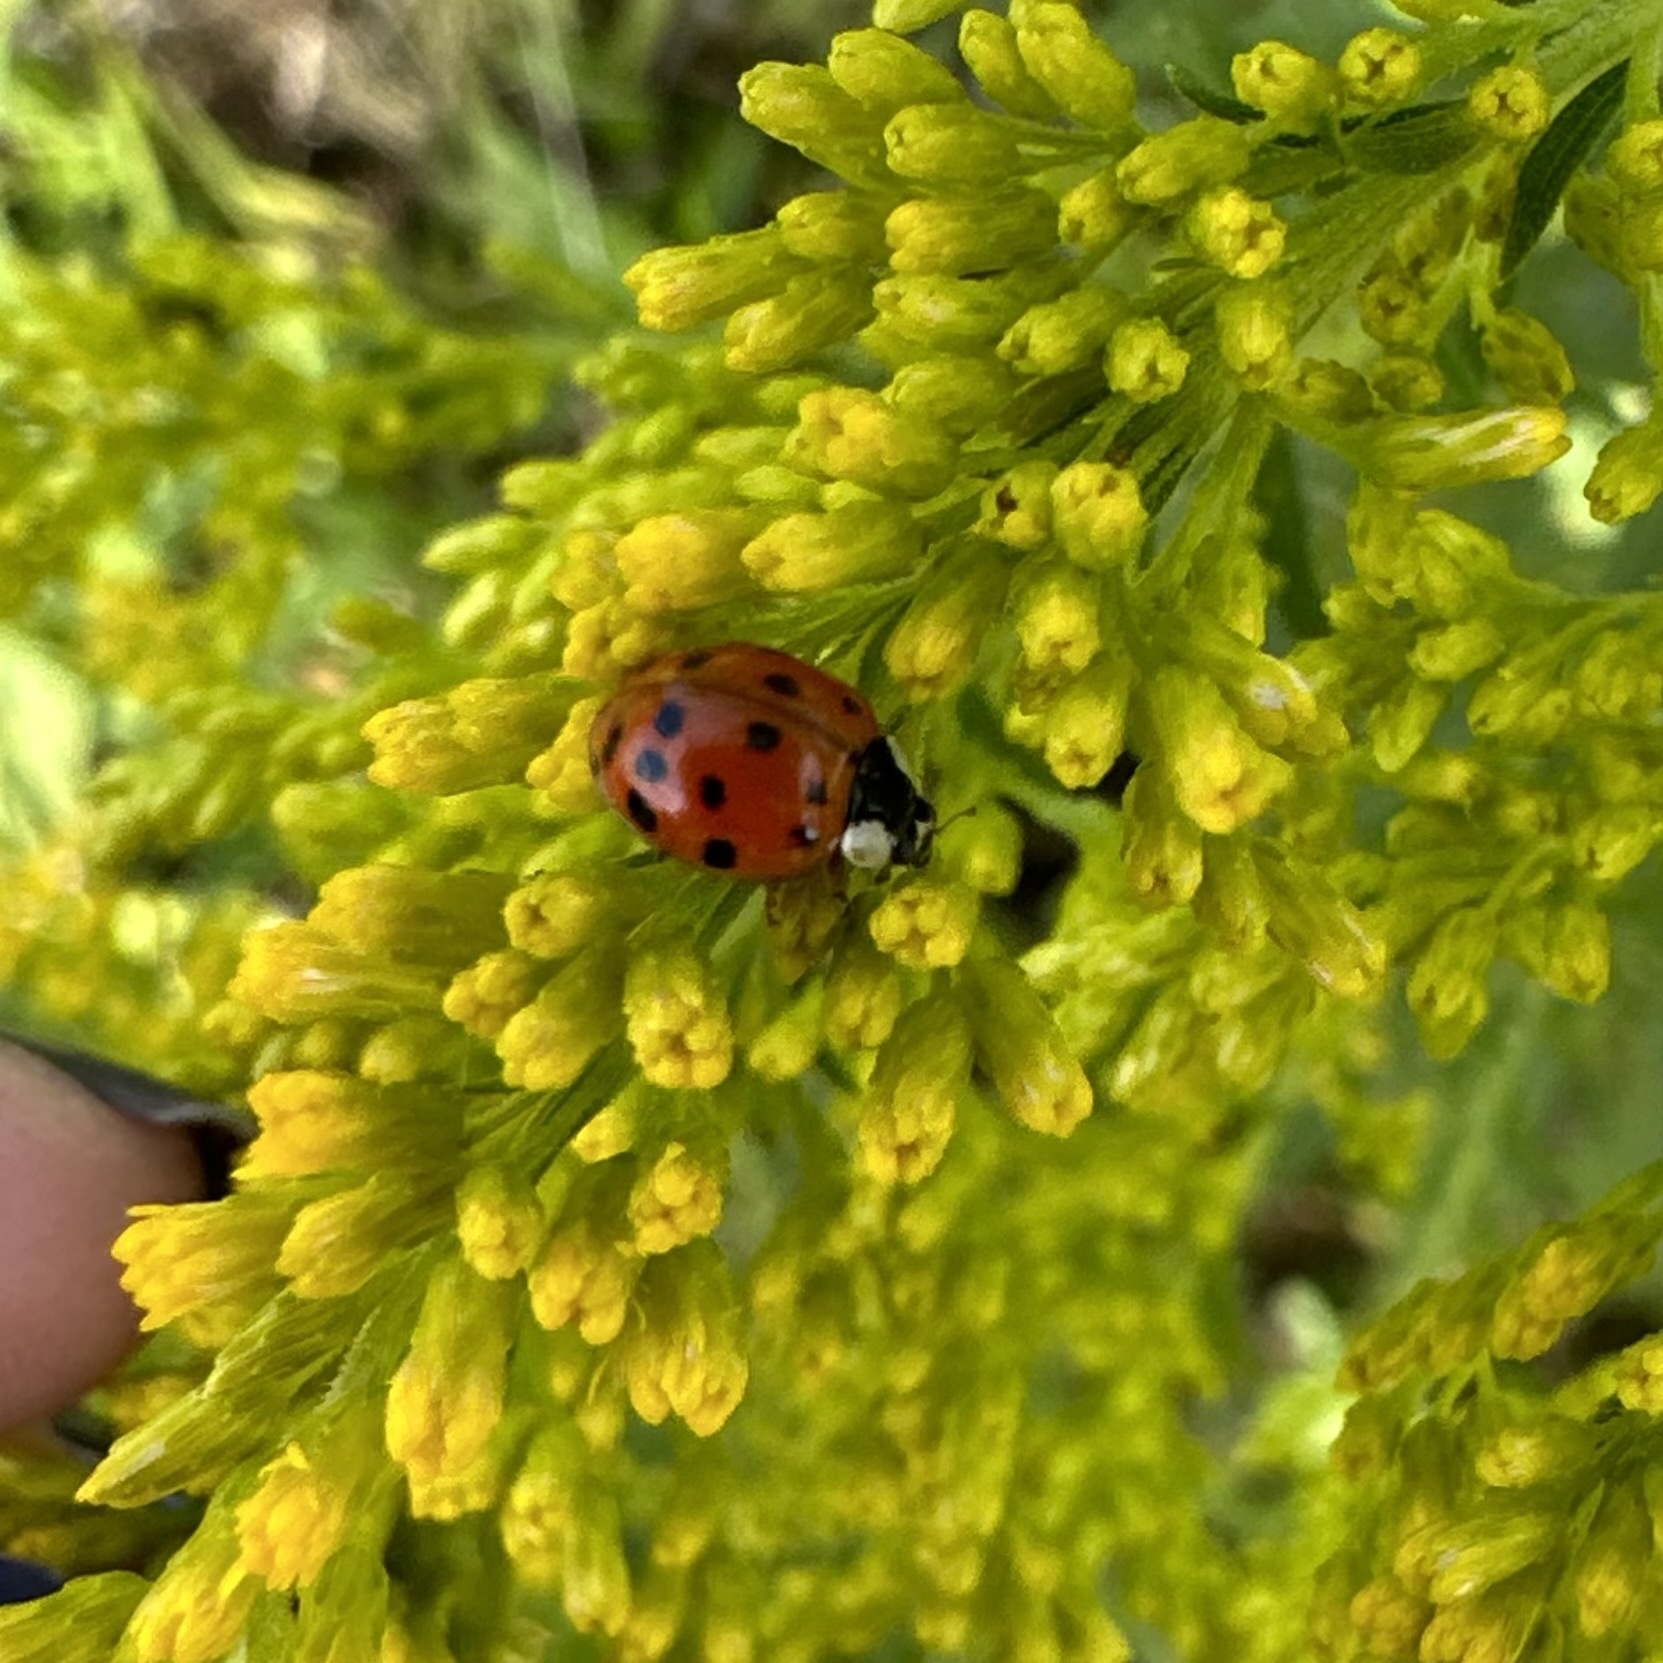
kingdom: Animalia
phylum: Arthropoda
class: Insecta
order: Coleoptera
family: Coccinellidae
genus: Harmonia
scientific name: Harmonia axyridis
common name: Harlequin ladybird
